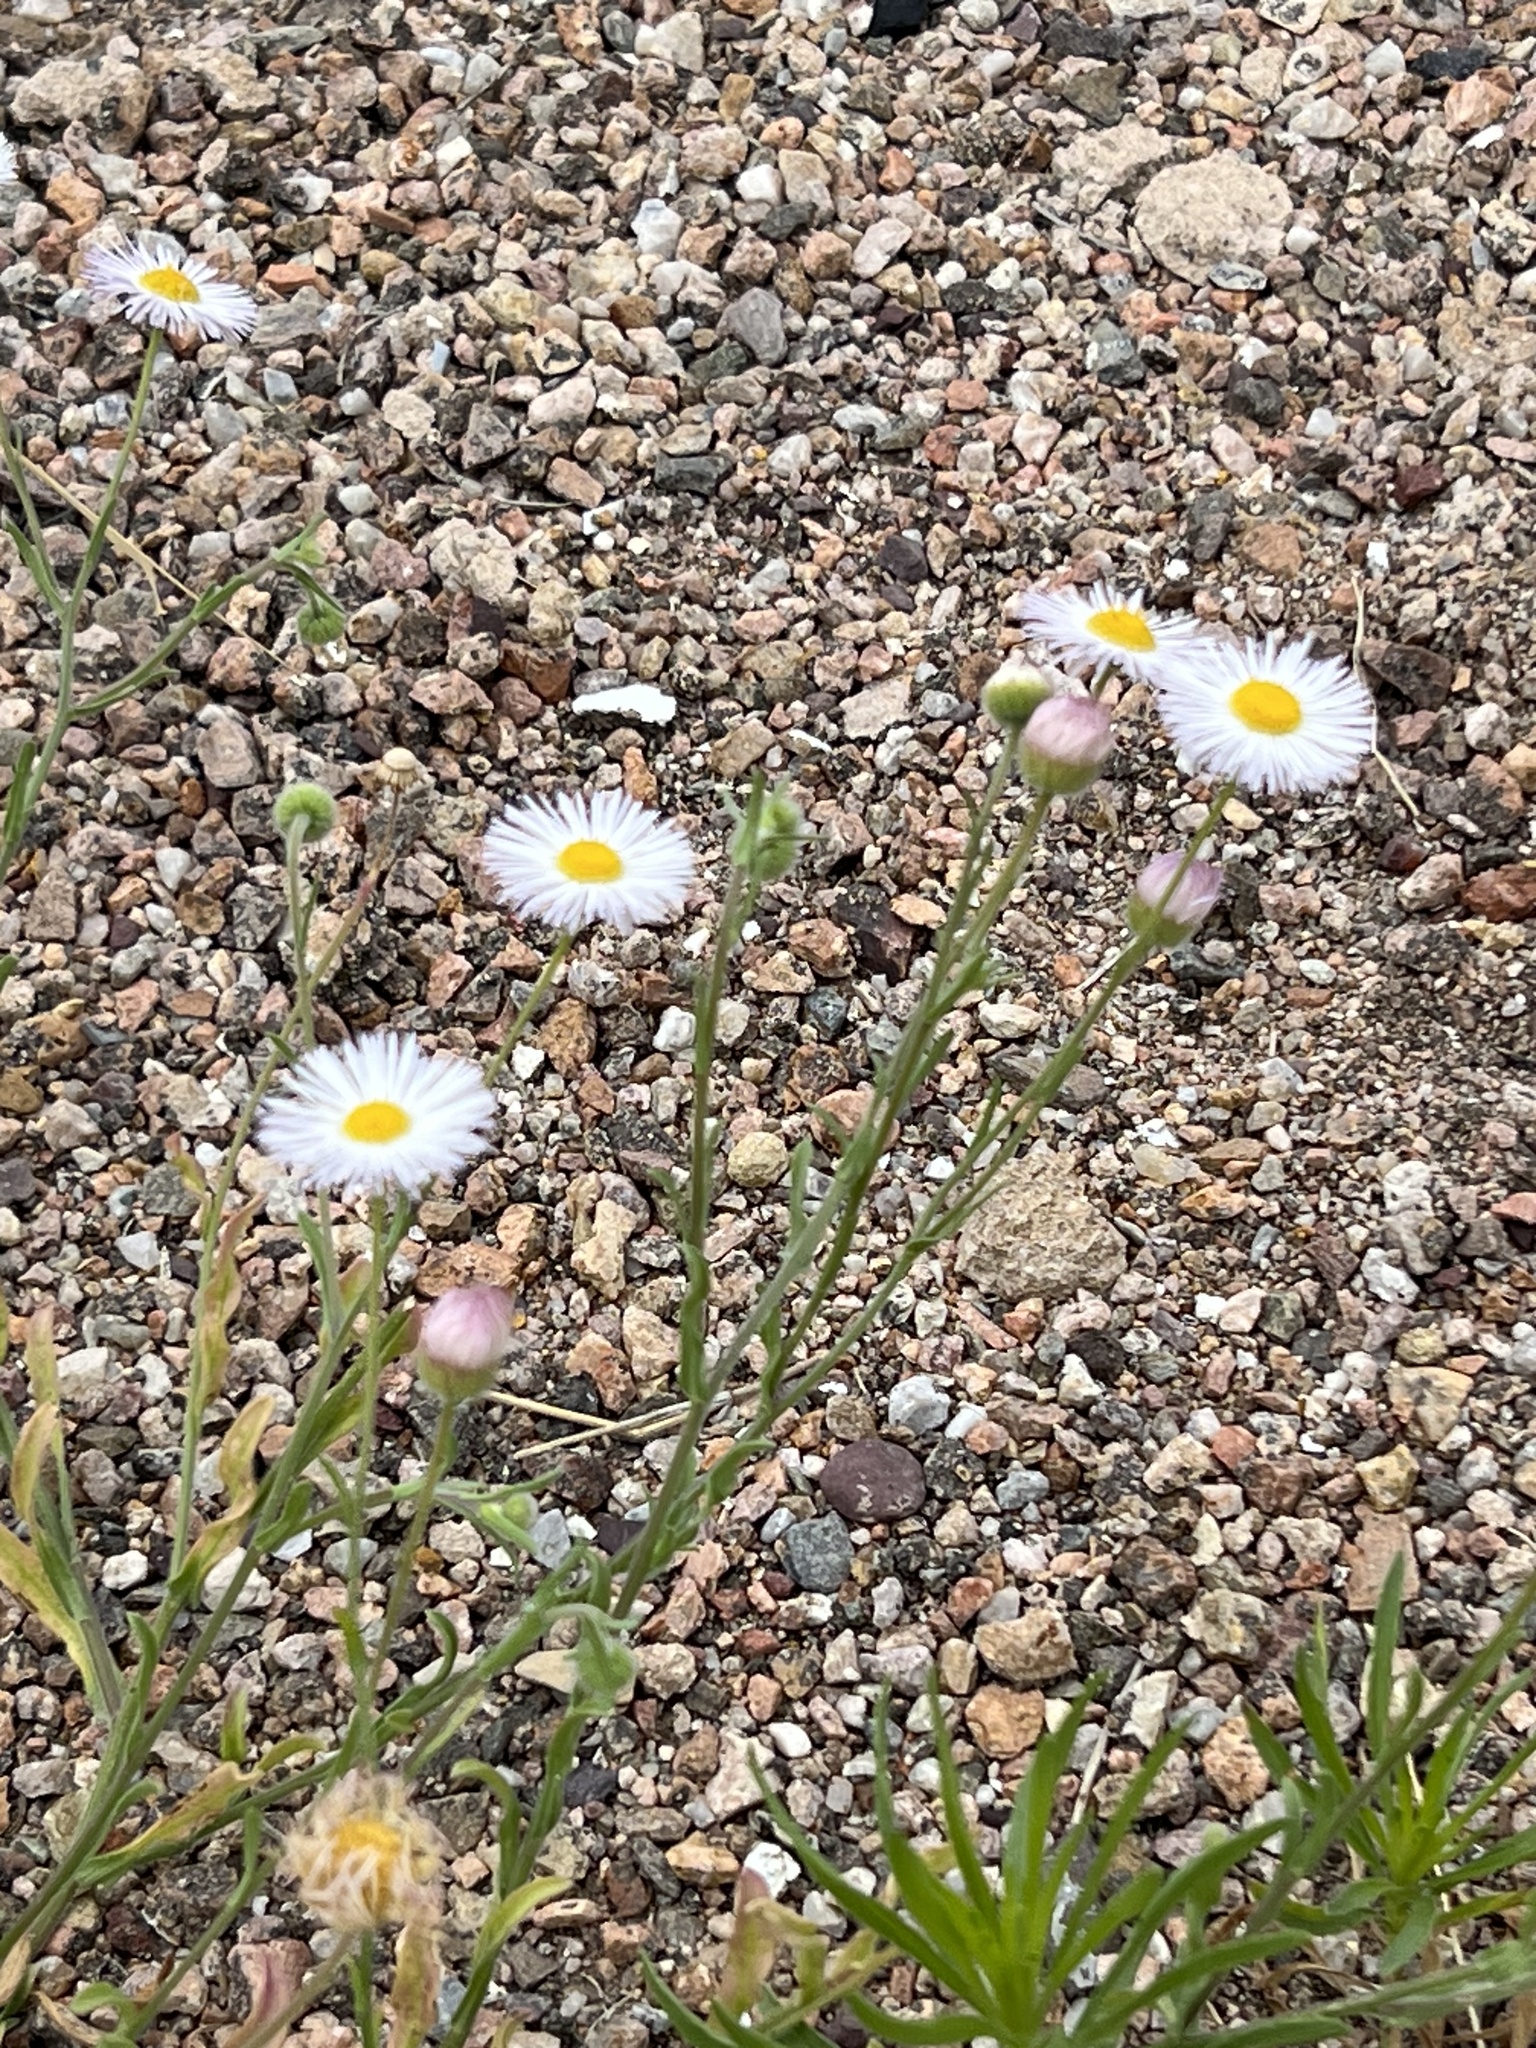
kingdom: Plantae
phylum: Tracheophyta
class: Magnoliopsida
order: Asterales
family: Asteraceae
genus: Erigeron
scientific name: Erigeron divergens
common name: Diffuse fleabane
